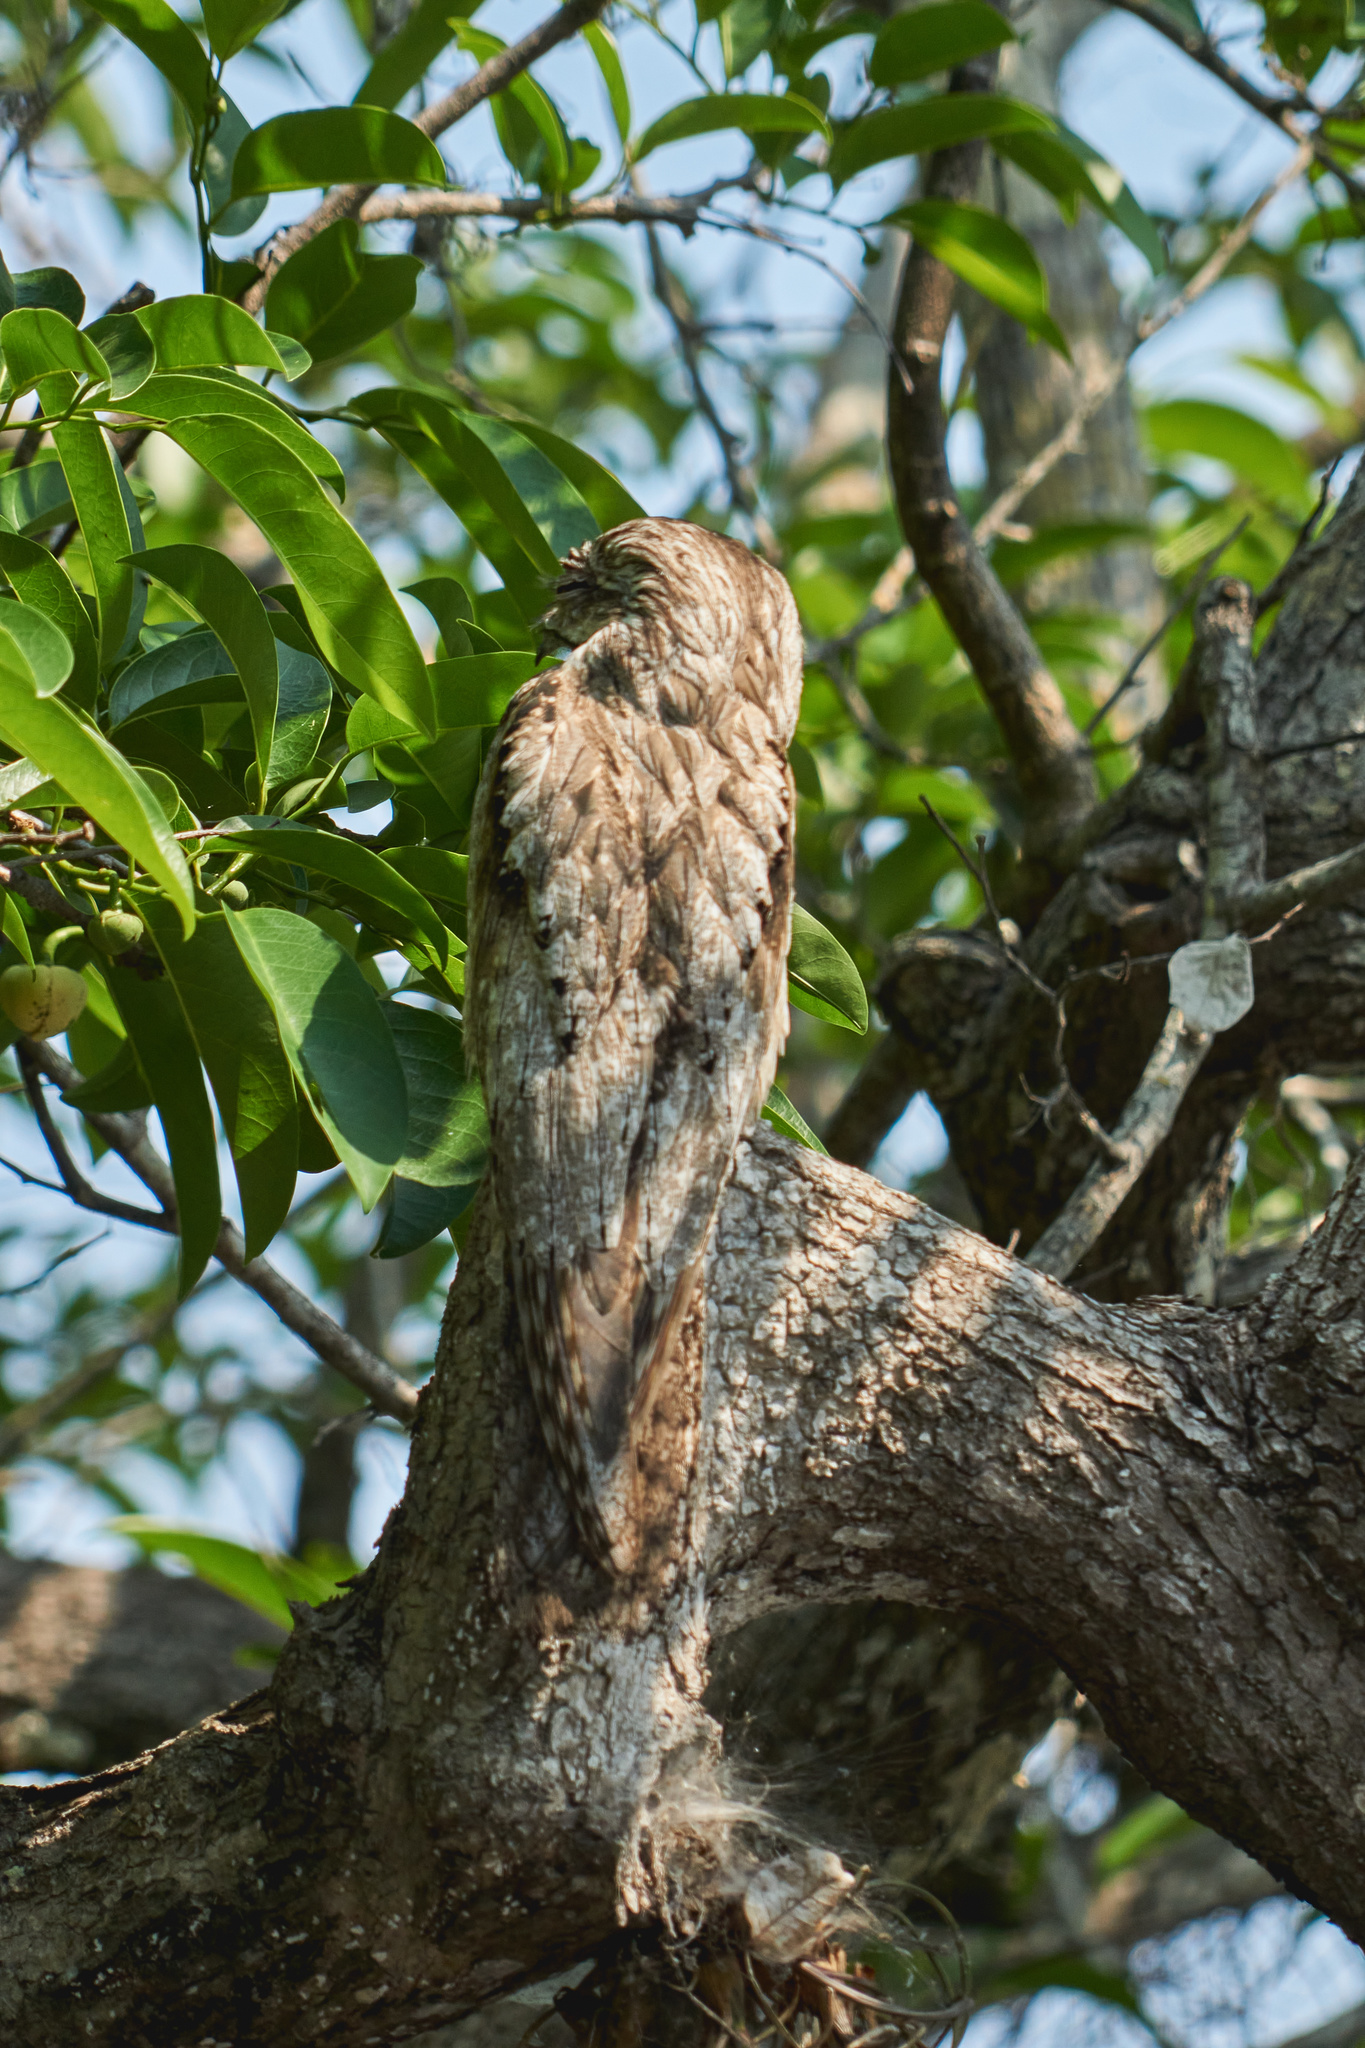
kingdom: Animalia
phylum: Chordata
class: Aves
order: Nyctibiiformes
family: Nyctibiidae
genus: Nyctibius
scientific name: Nyctibius jamaicensis
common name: Northern potoo
